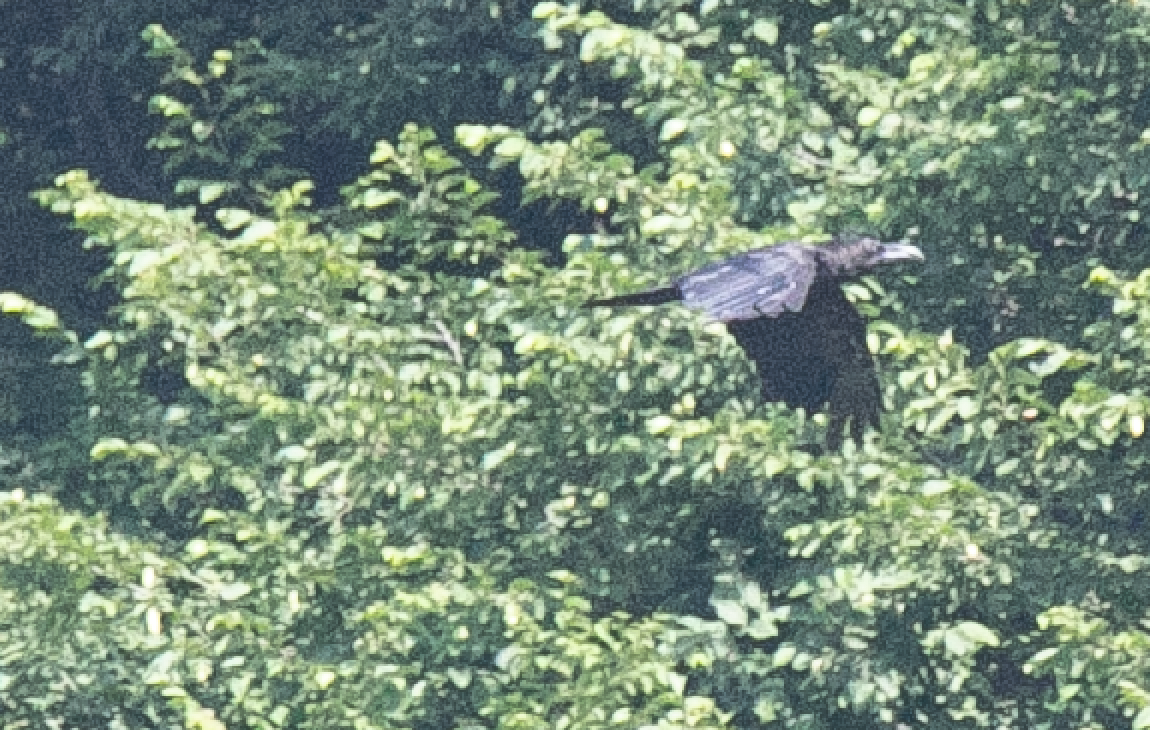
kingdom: Animalia
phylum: Chordata
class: Aves
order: Passeriformes
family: Corvidae
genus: Corvus
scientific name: Corvus corax
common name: Common raven
